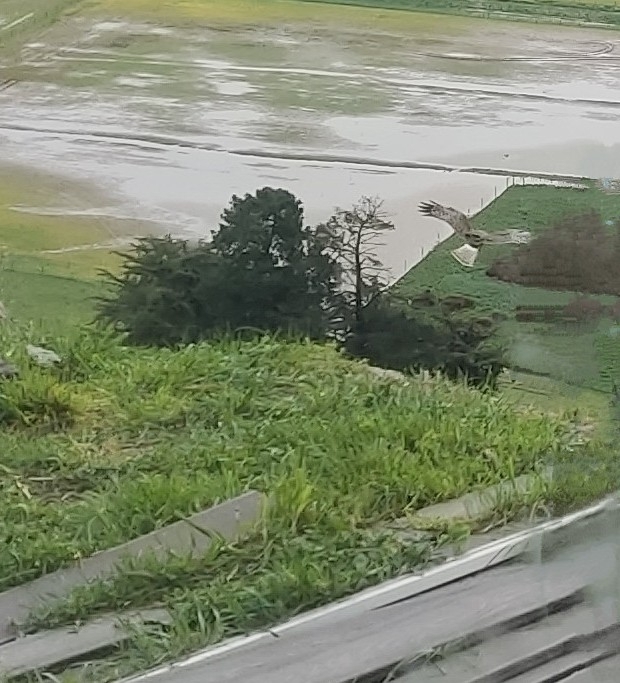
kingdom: Animalia
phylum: Chordata
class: Aves
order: Accipitriformes
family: Accipitridae
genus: Circus
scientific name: Circus approximans
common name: Swamp harrier
